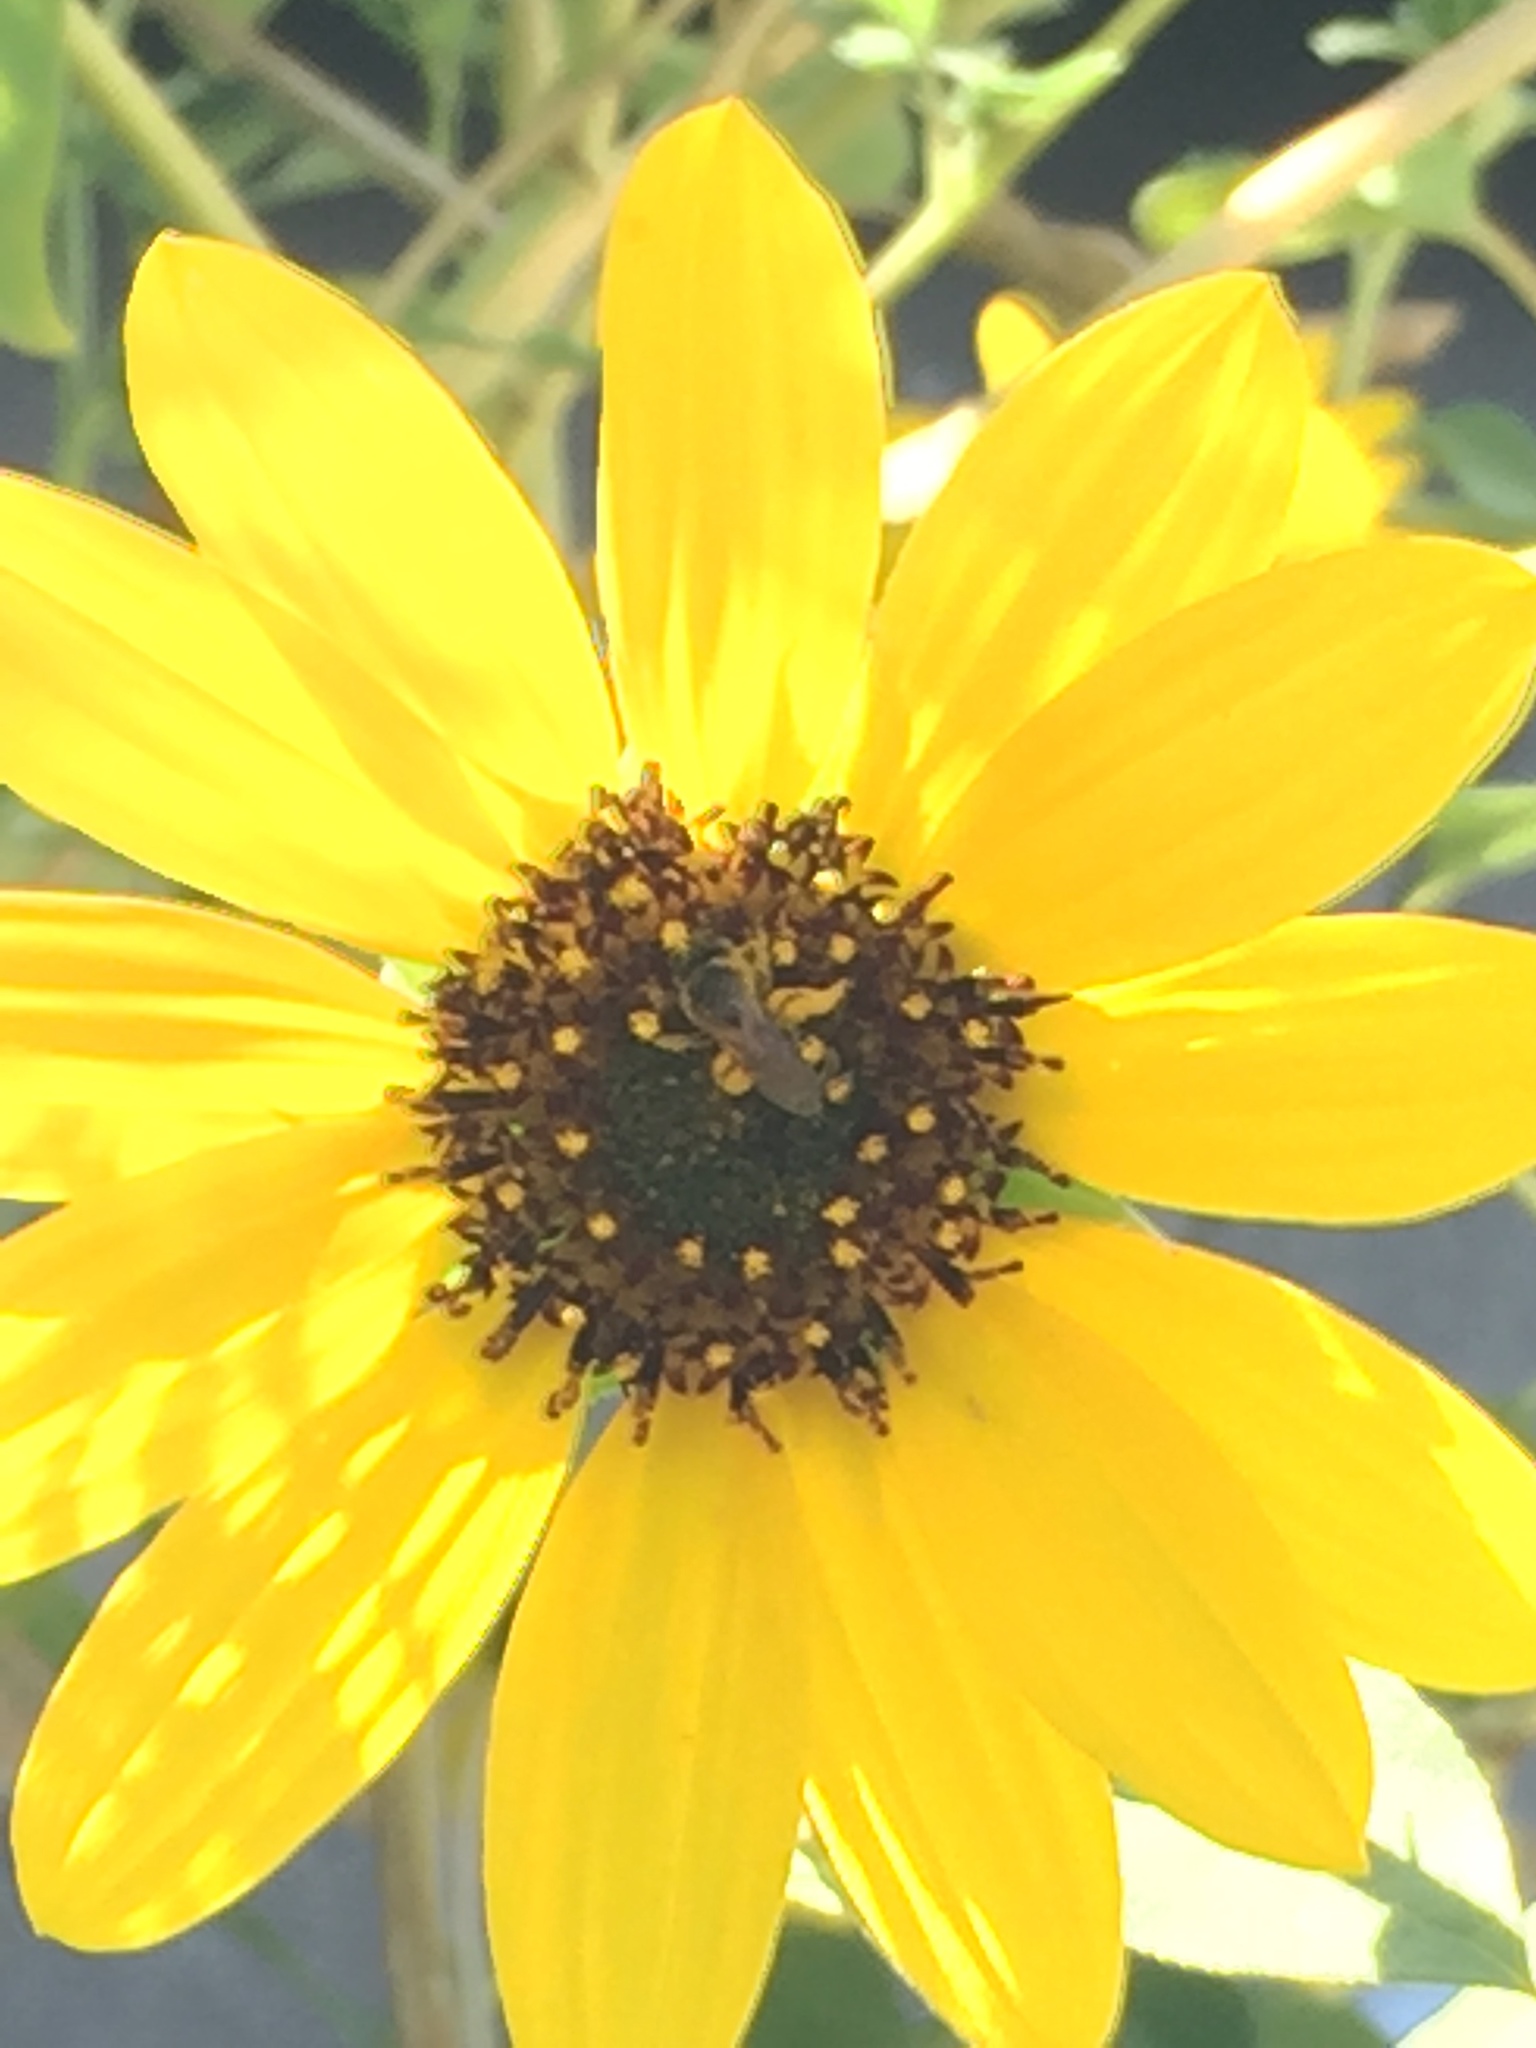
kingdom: Animalia
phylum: Arthropoda
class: Insecta
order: Hymenoptera
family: Halictidae
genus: Halictus
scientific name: Halictus ligatus
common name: Ligated furrow bee
